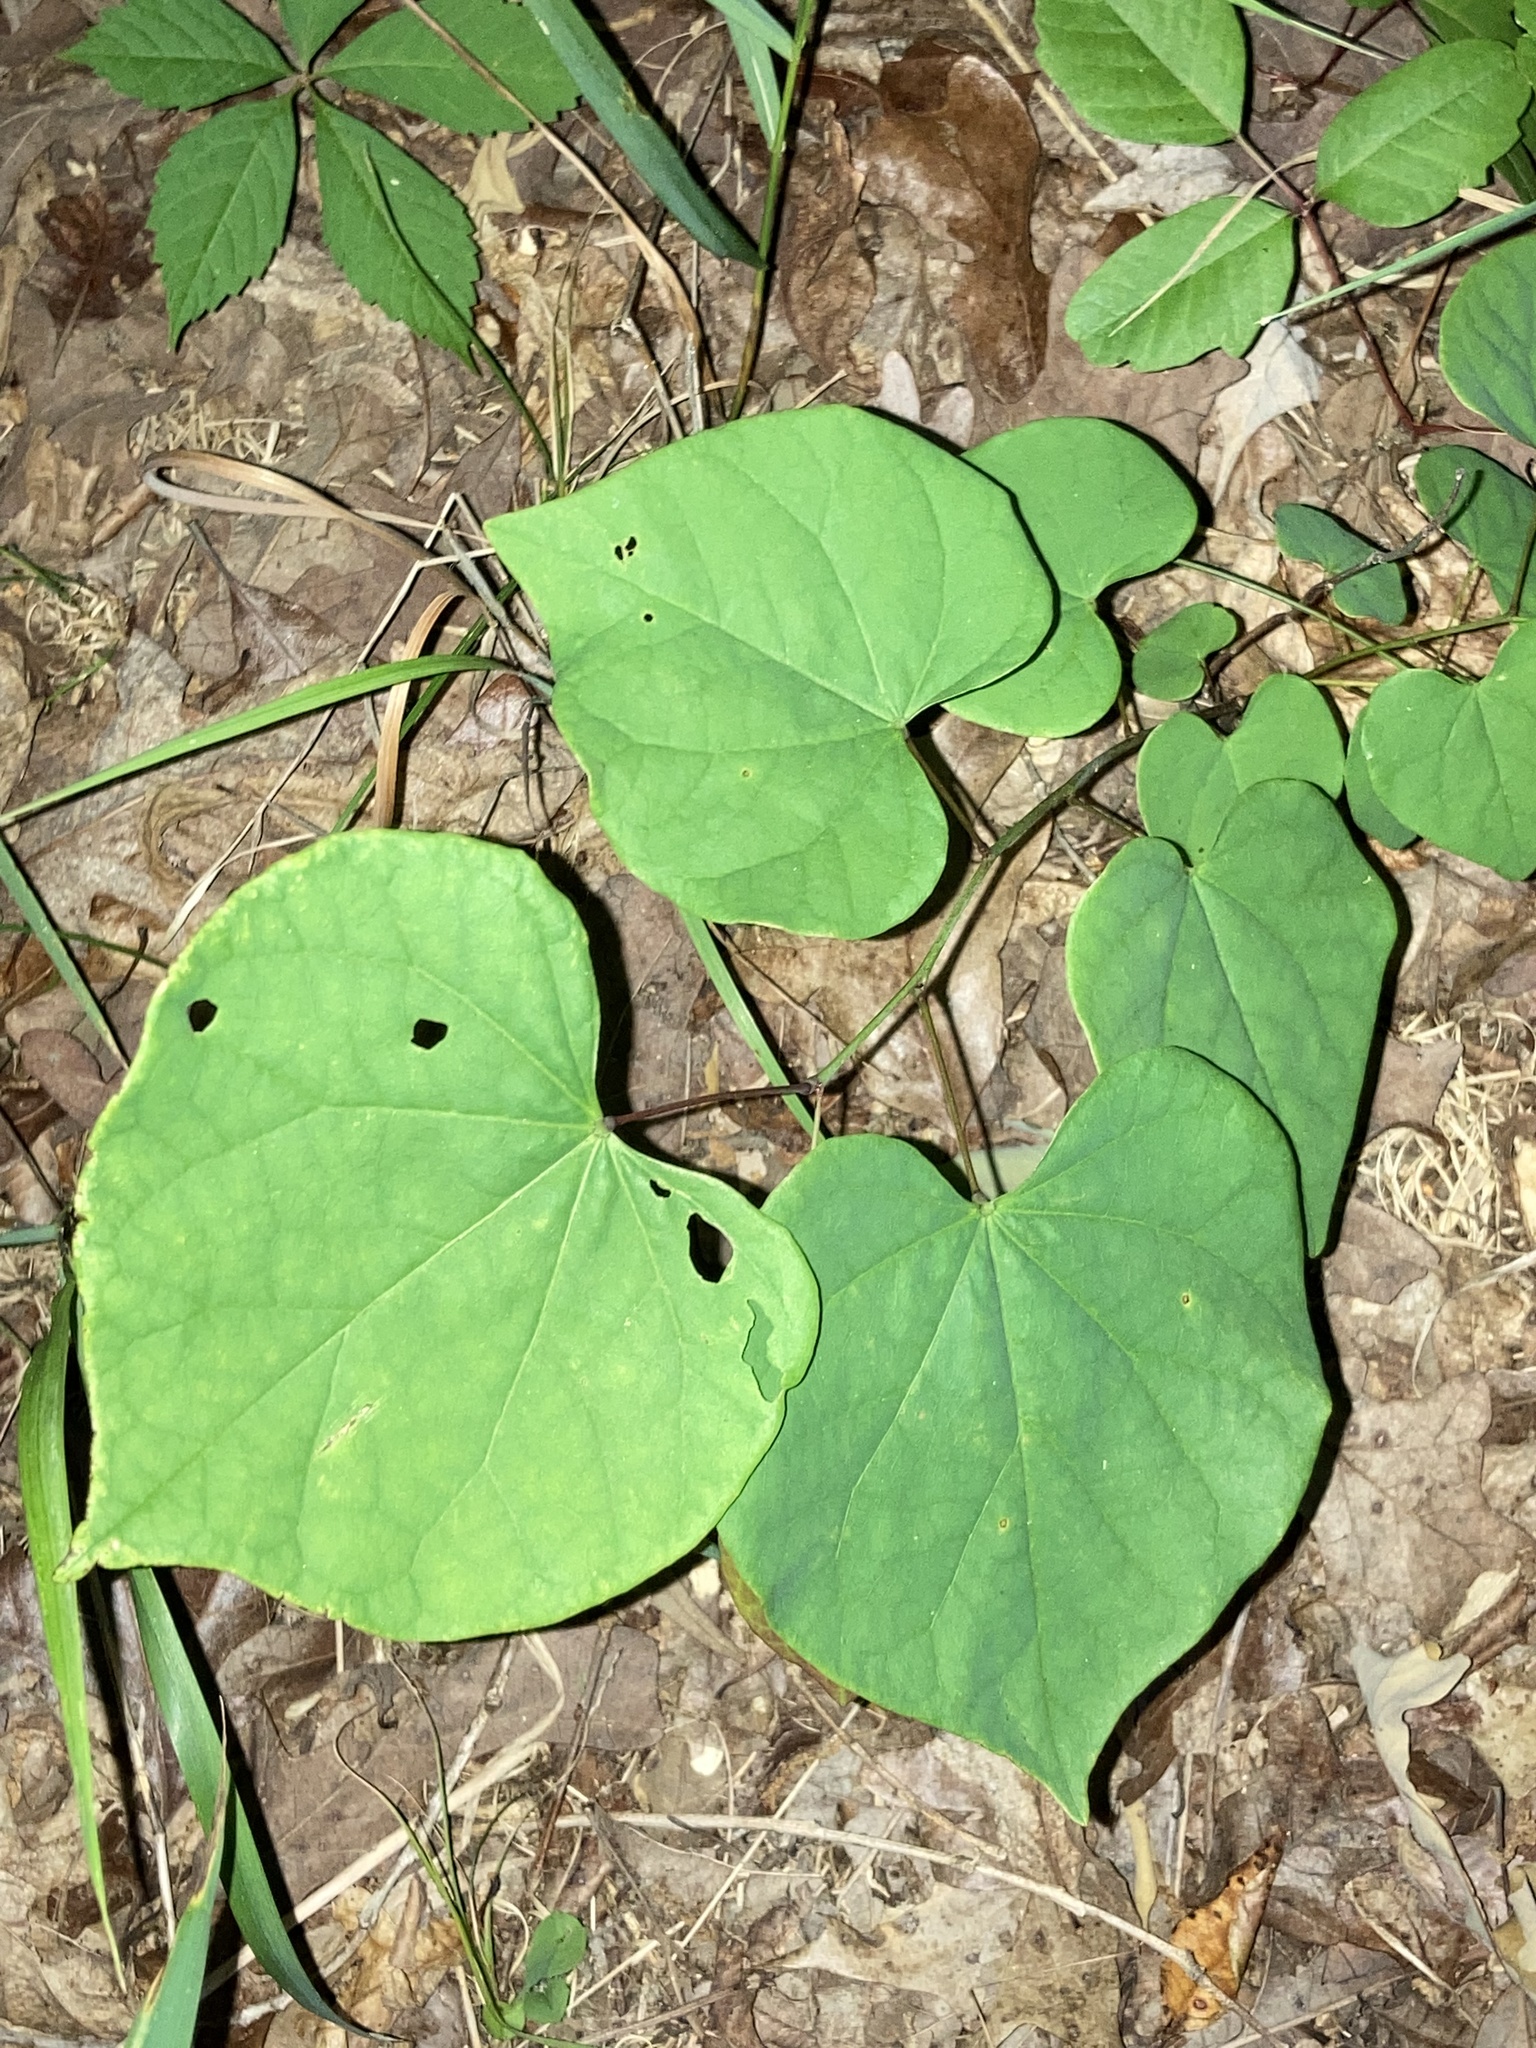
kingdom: Plantae
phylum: Tracheophyta
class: Magnoliopsida
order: Fabales
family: Fabaceae
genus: Cercis
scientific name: Cercis canadensis
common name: Eastern redbud
